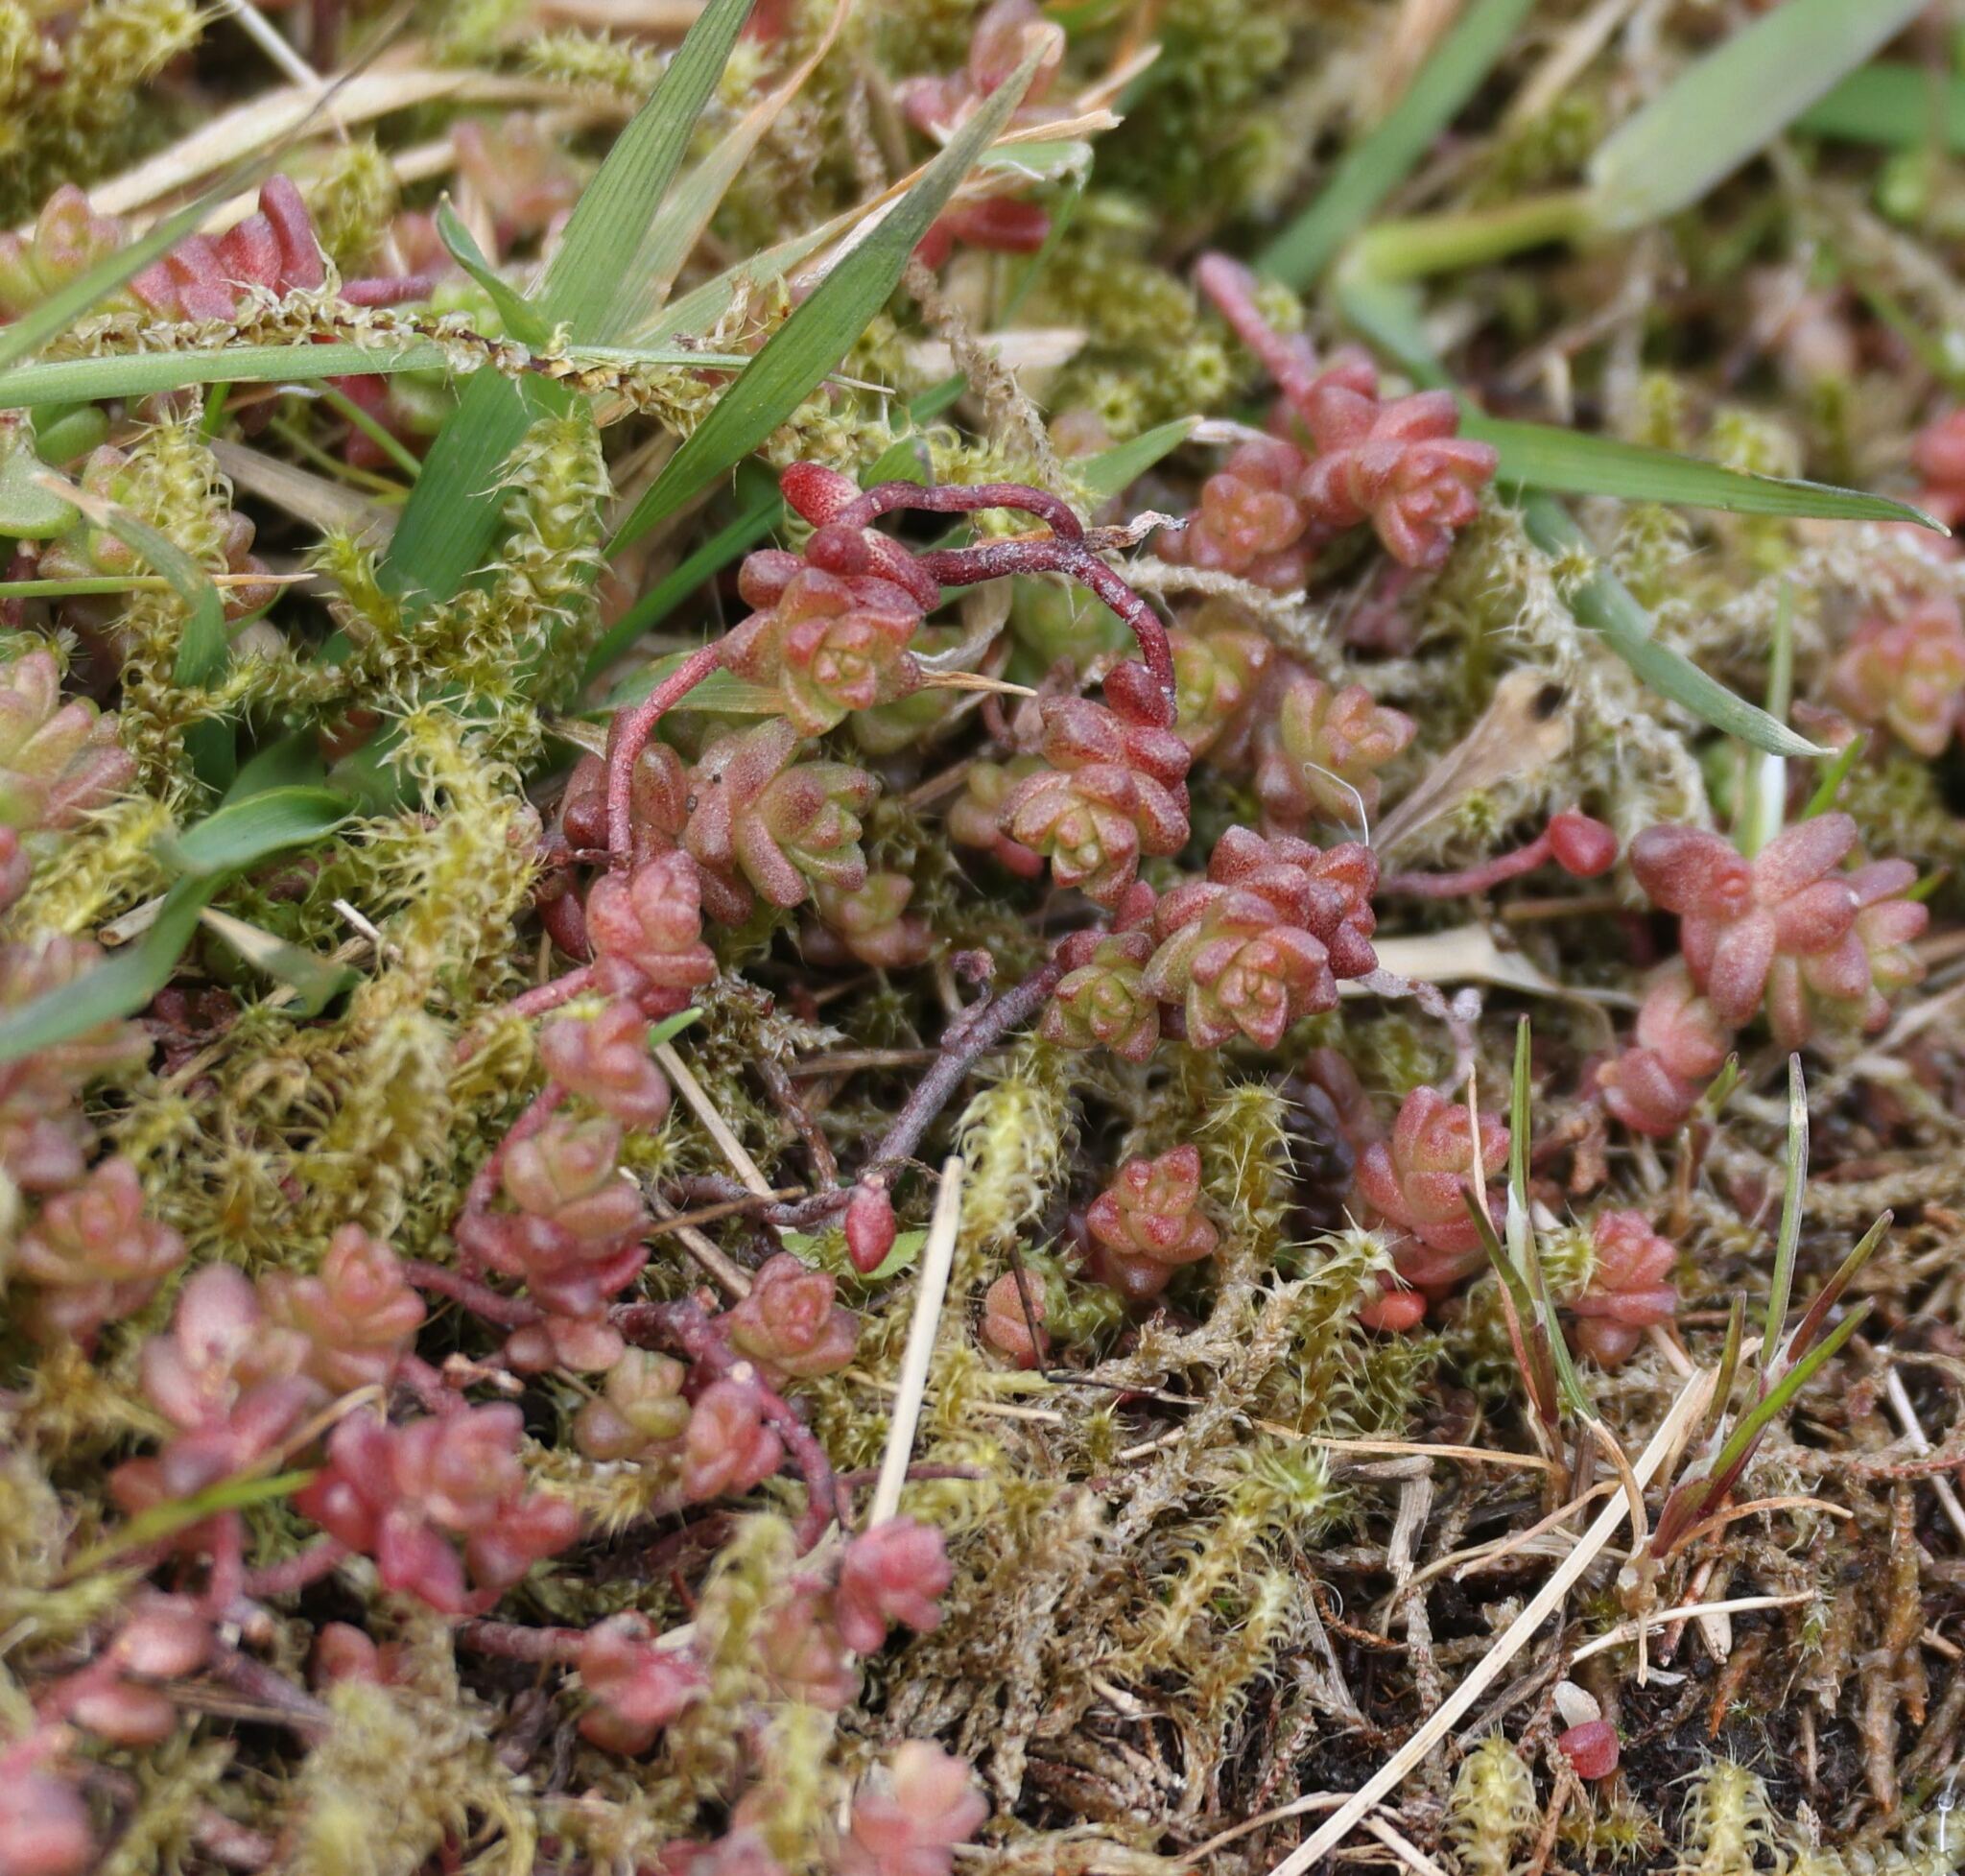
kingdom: Plantae
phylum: Tracheophyta
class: Magnoliopsida
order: Saxifragales
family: Crassulaceae
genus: Sedum
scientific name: Sedum anglicum
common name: English stonecrop
